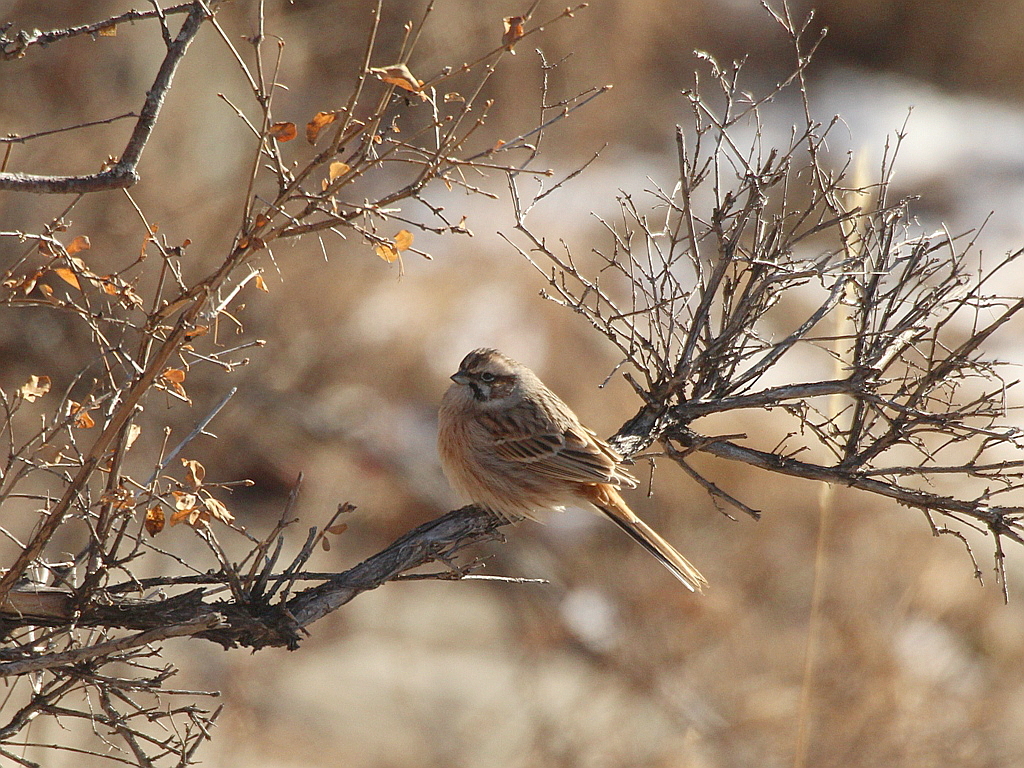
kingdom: Animalia
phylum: Chordata
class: Aves
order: Passeriformes
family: Emberizidae
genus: Emberiza
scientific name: Emberiza cioides
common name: Meadow bunting
